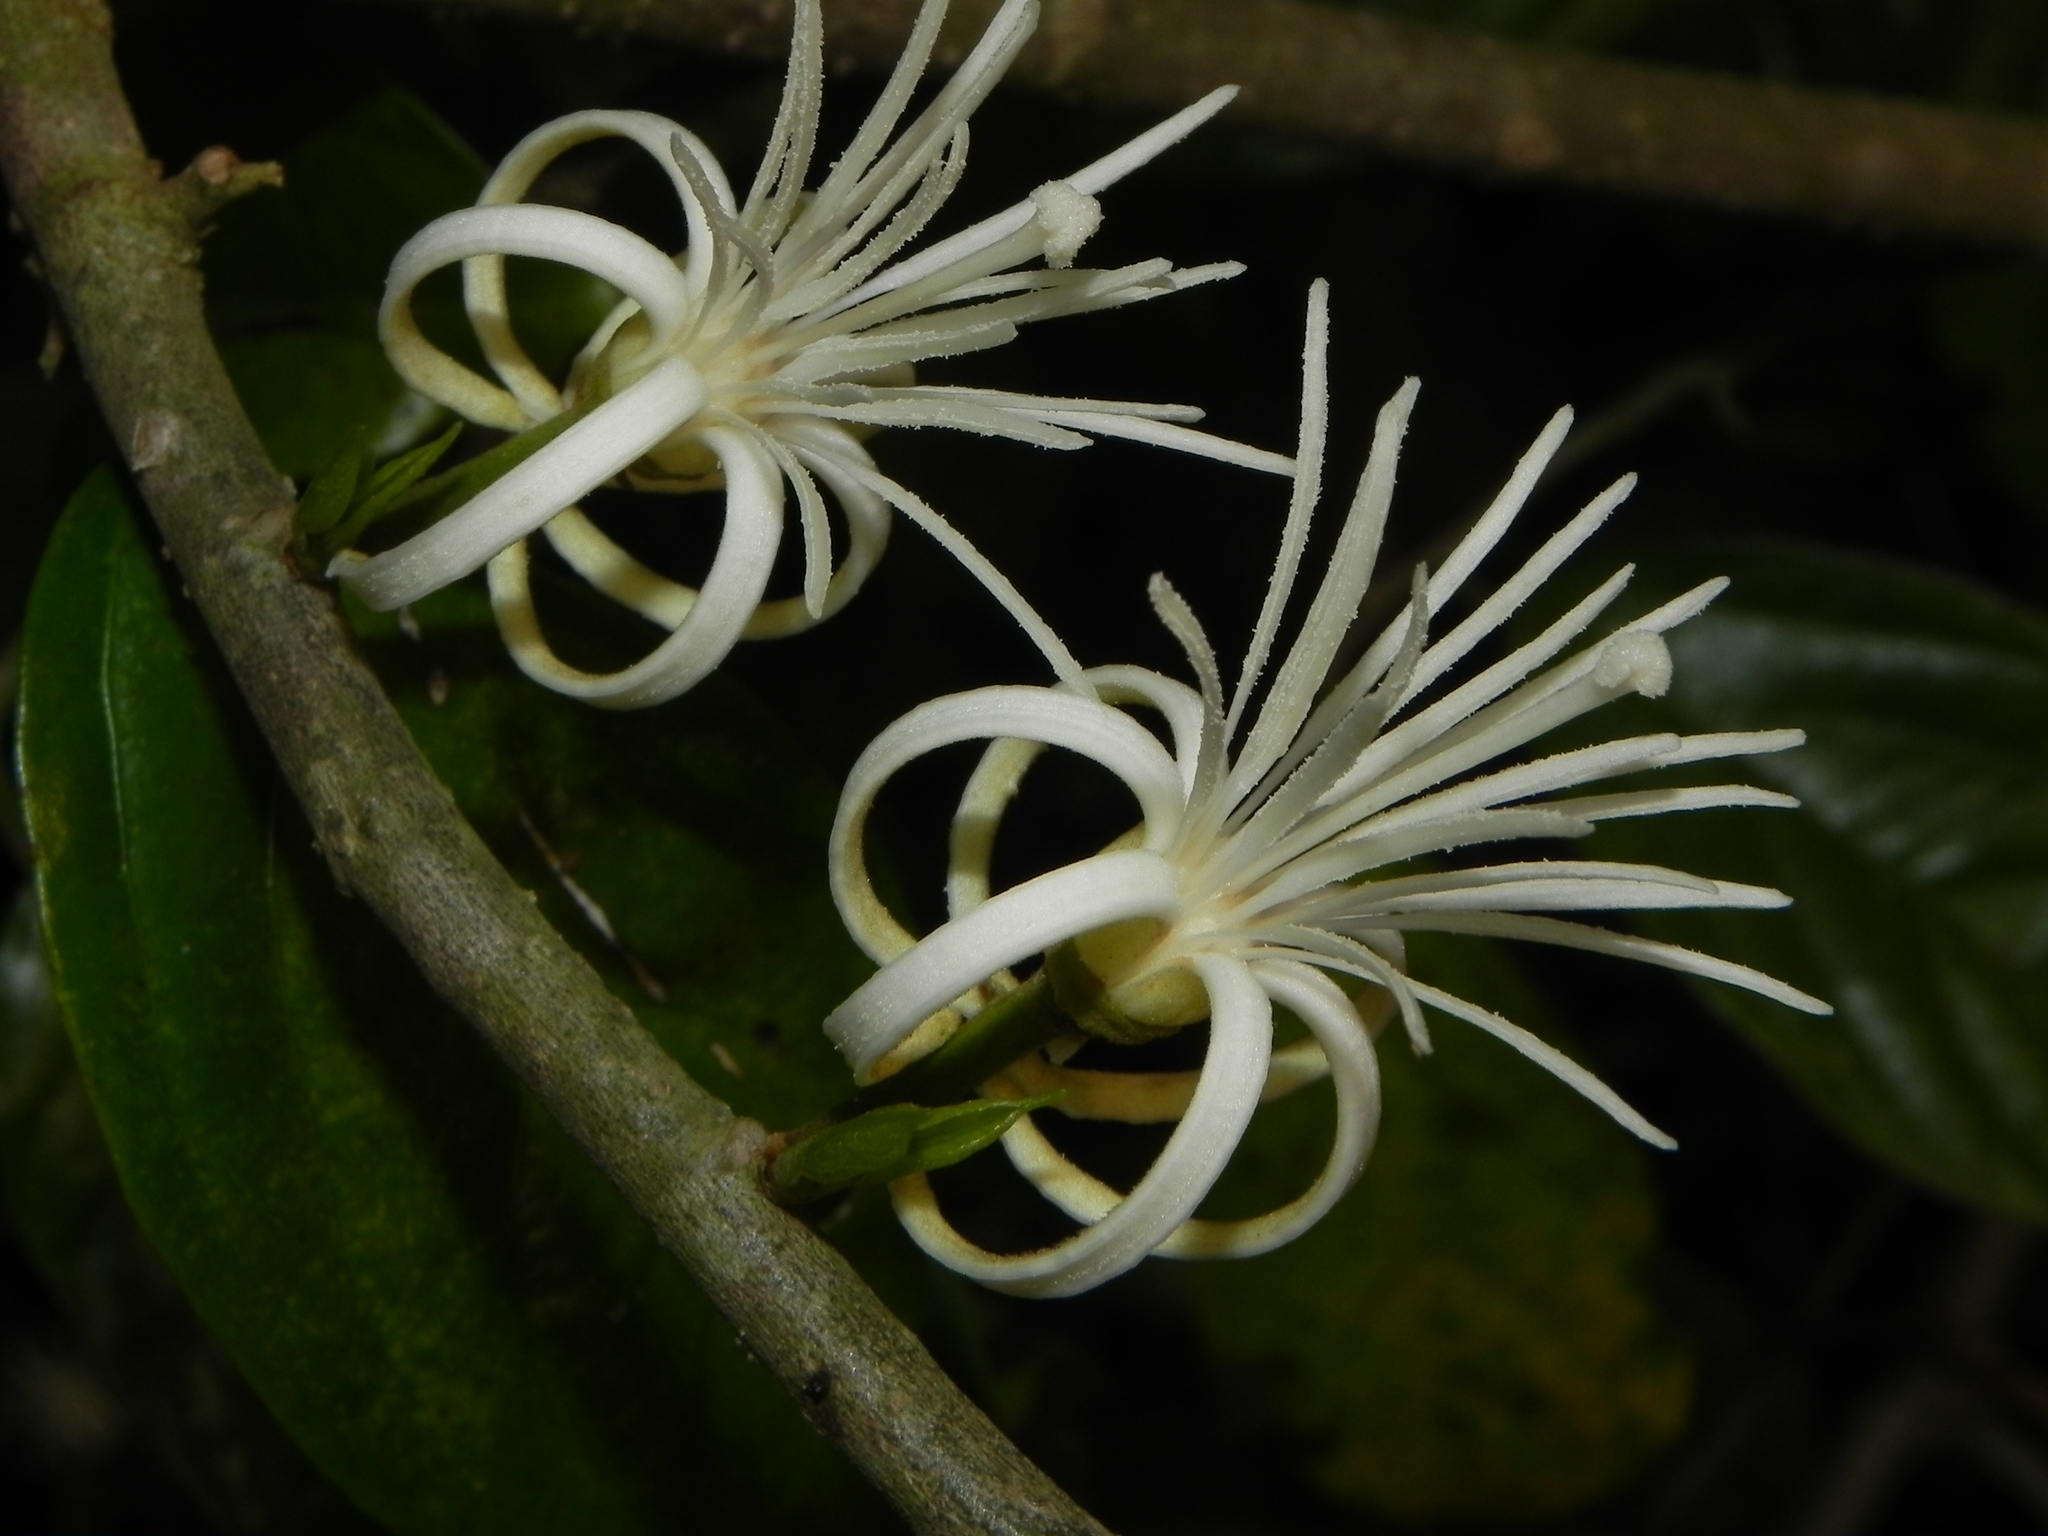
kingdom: Plantae
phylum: Tracheophyta
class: Magnoliopsida
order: Cornales
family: Cornaceae
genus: Alangium
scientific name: Alangium salviifolium
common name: Sage-leaf alangium
